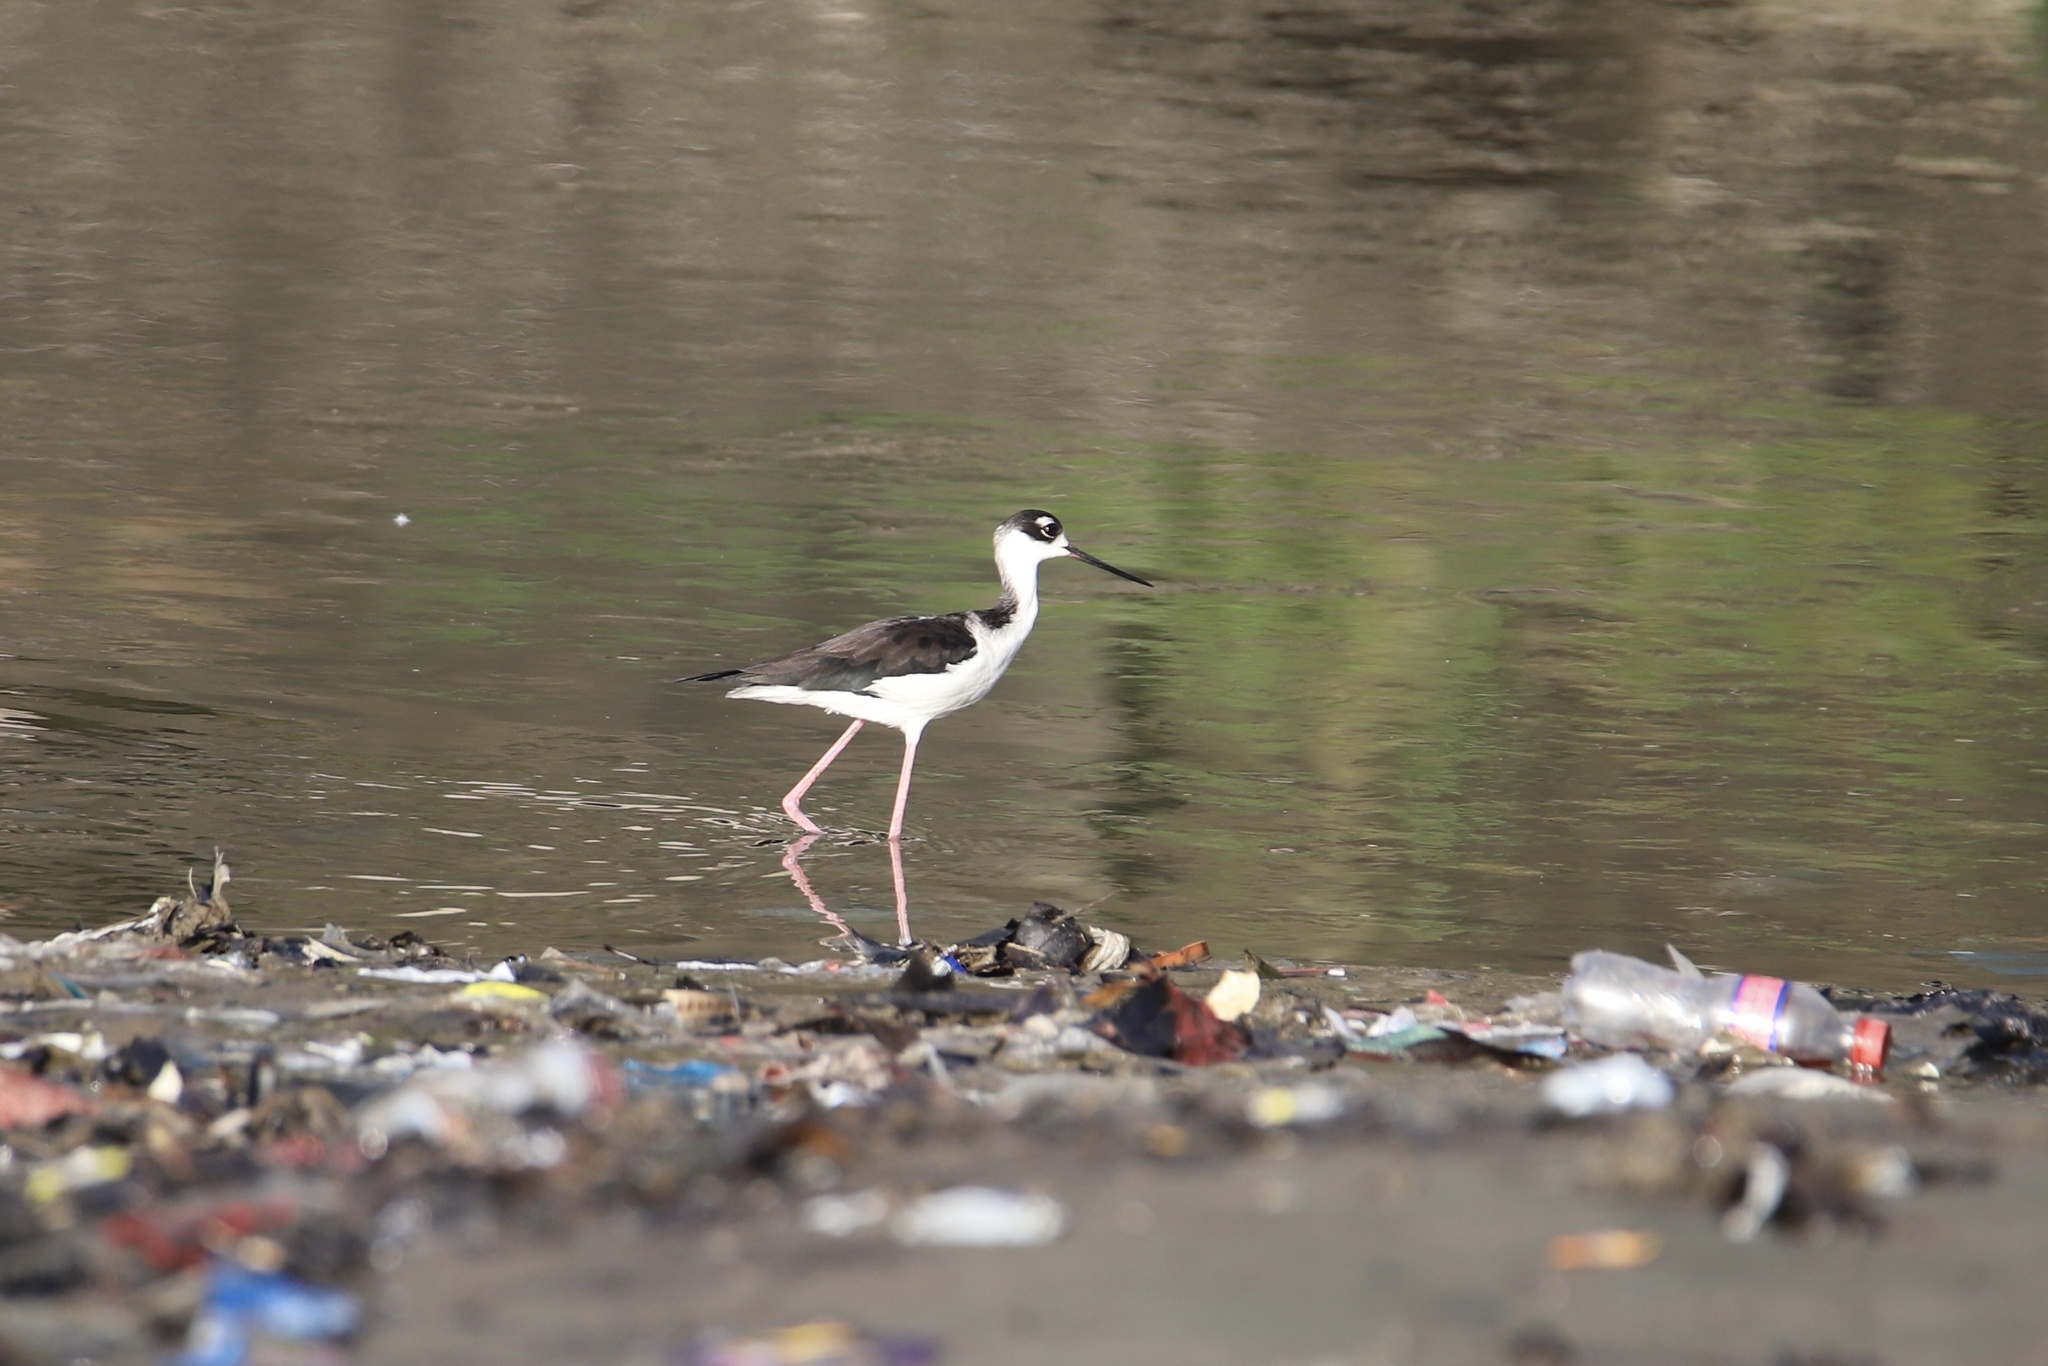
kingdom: Animalia
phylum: Chordata
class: Aves
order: Charadriiformes
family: Recurvirostridae
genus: Himantopus
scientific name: Himantopus mexicanus
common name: Black-necked stilt
